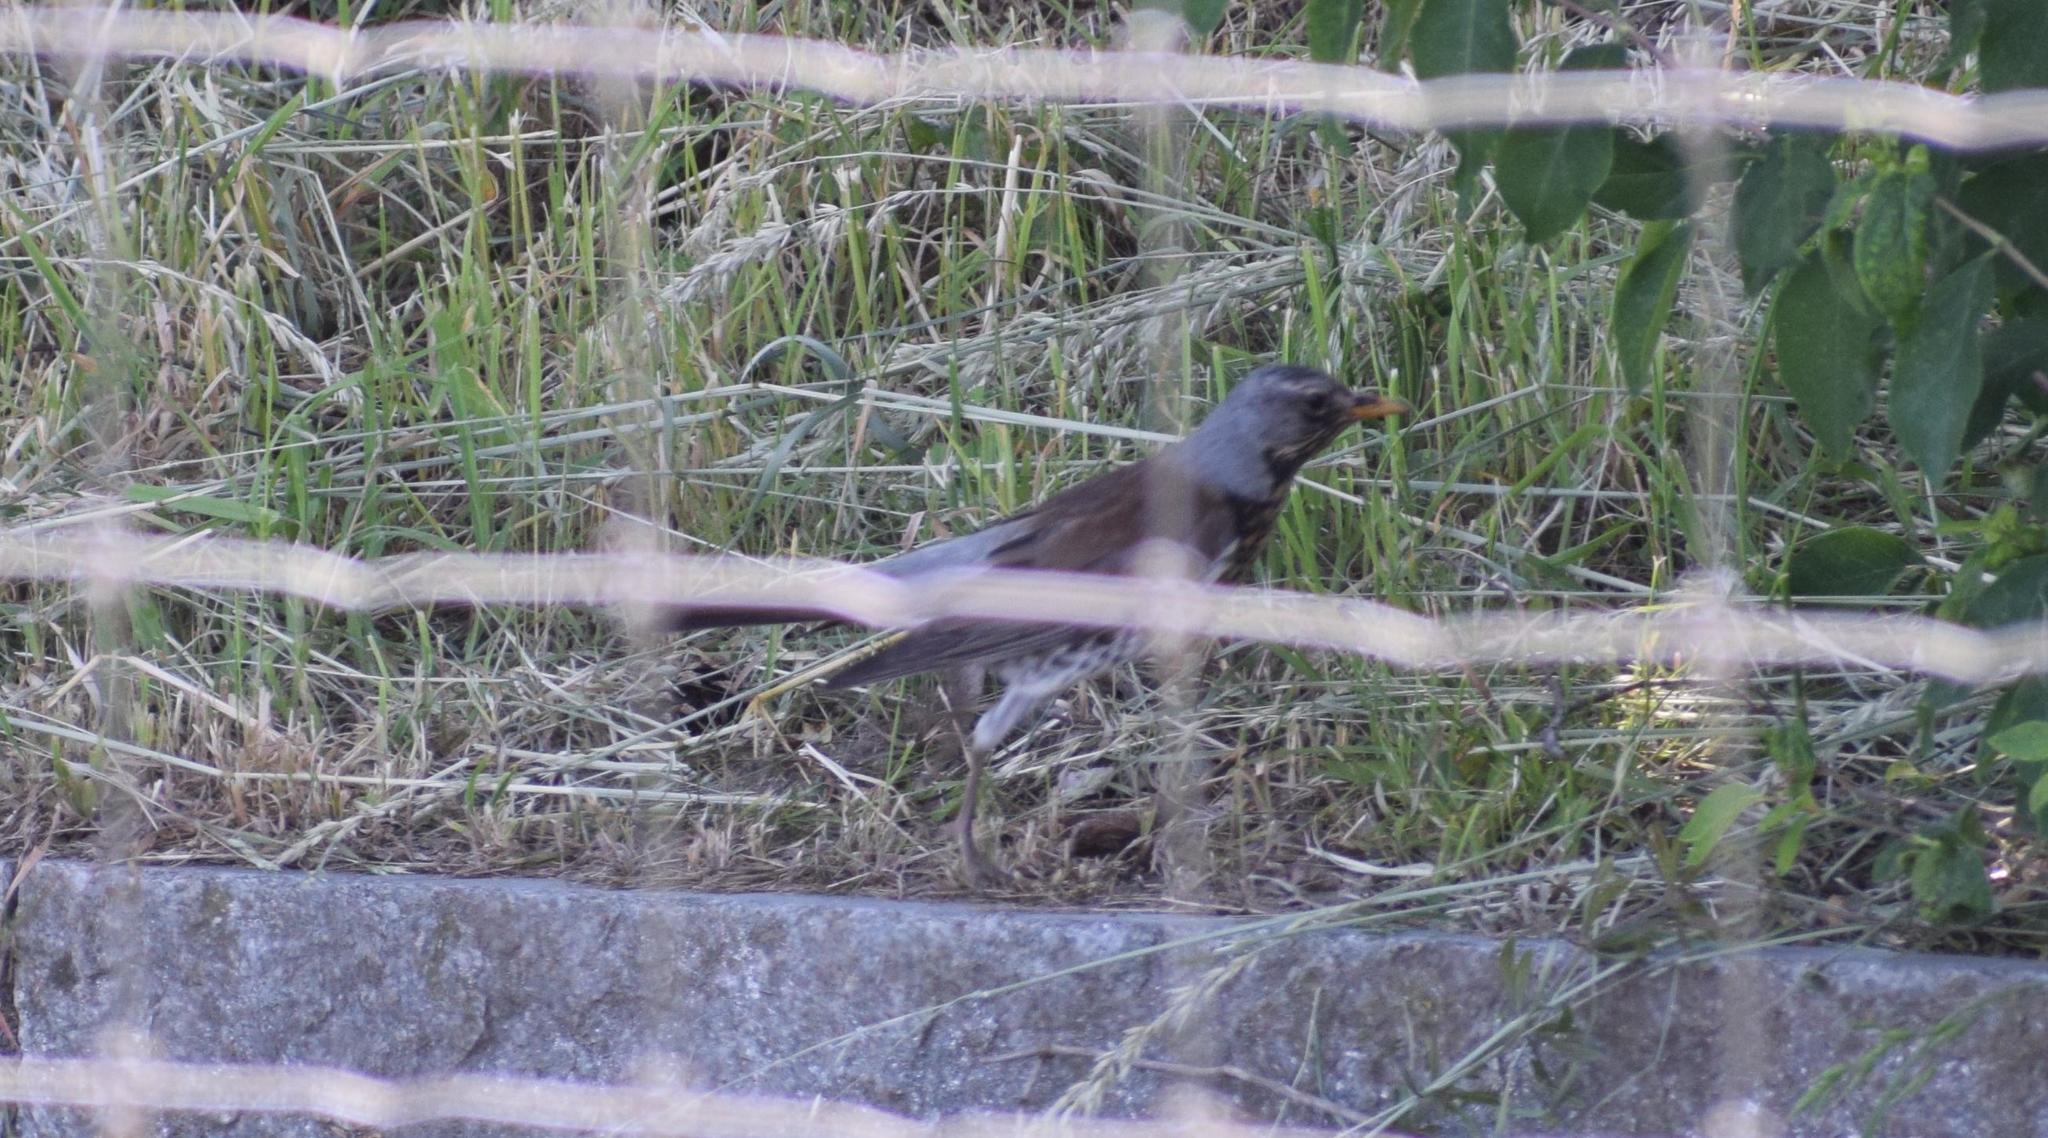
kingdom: Animalia
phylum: Chordata
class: Aves
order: Passeriformes
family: Turdidae
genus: Turdus
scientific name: Turdus pilaris
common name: Fieldfare
